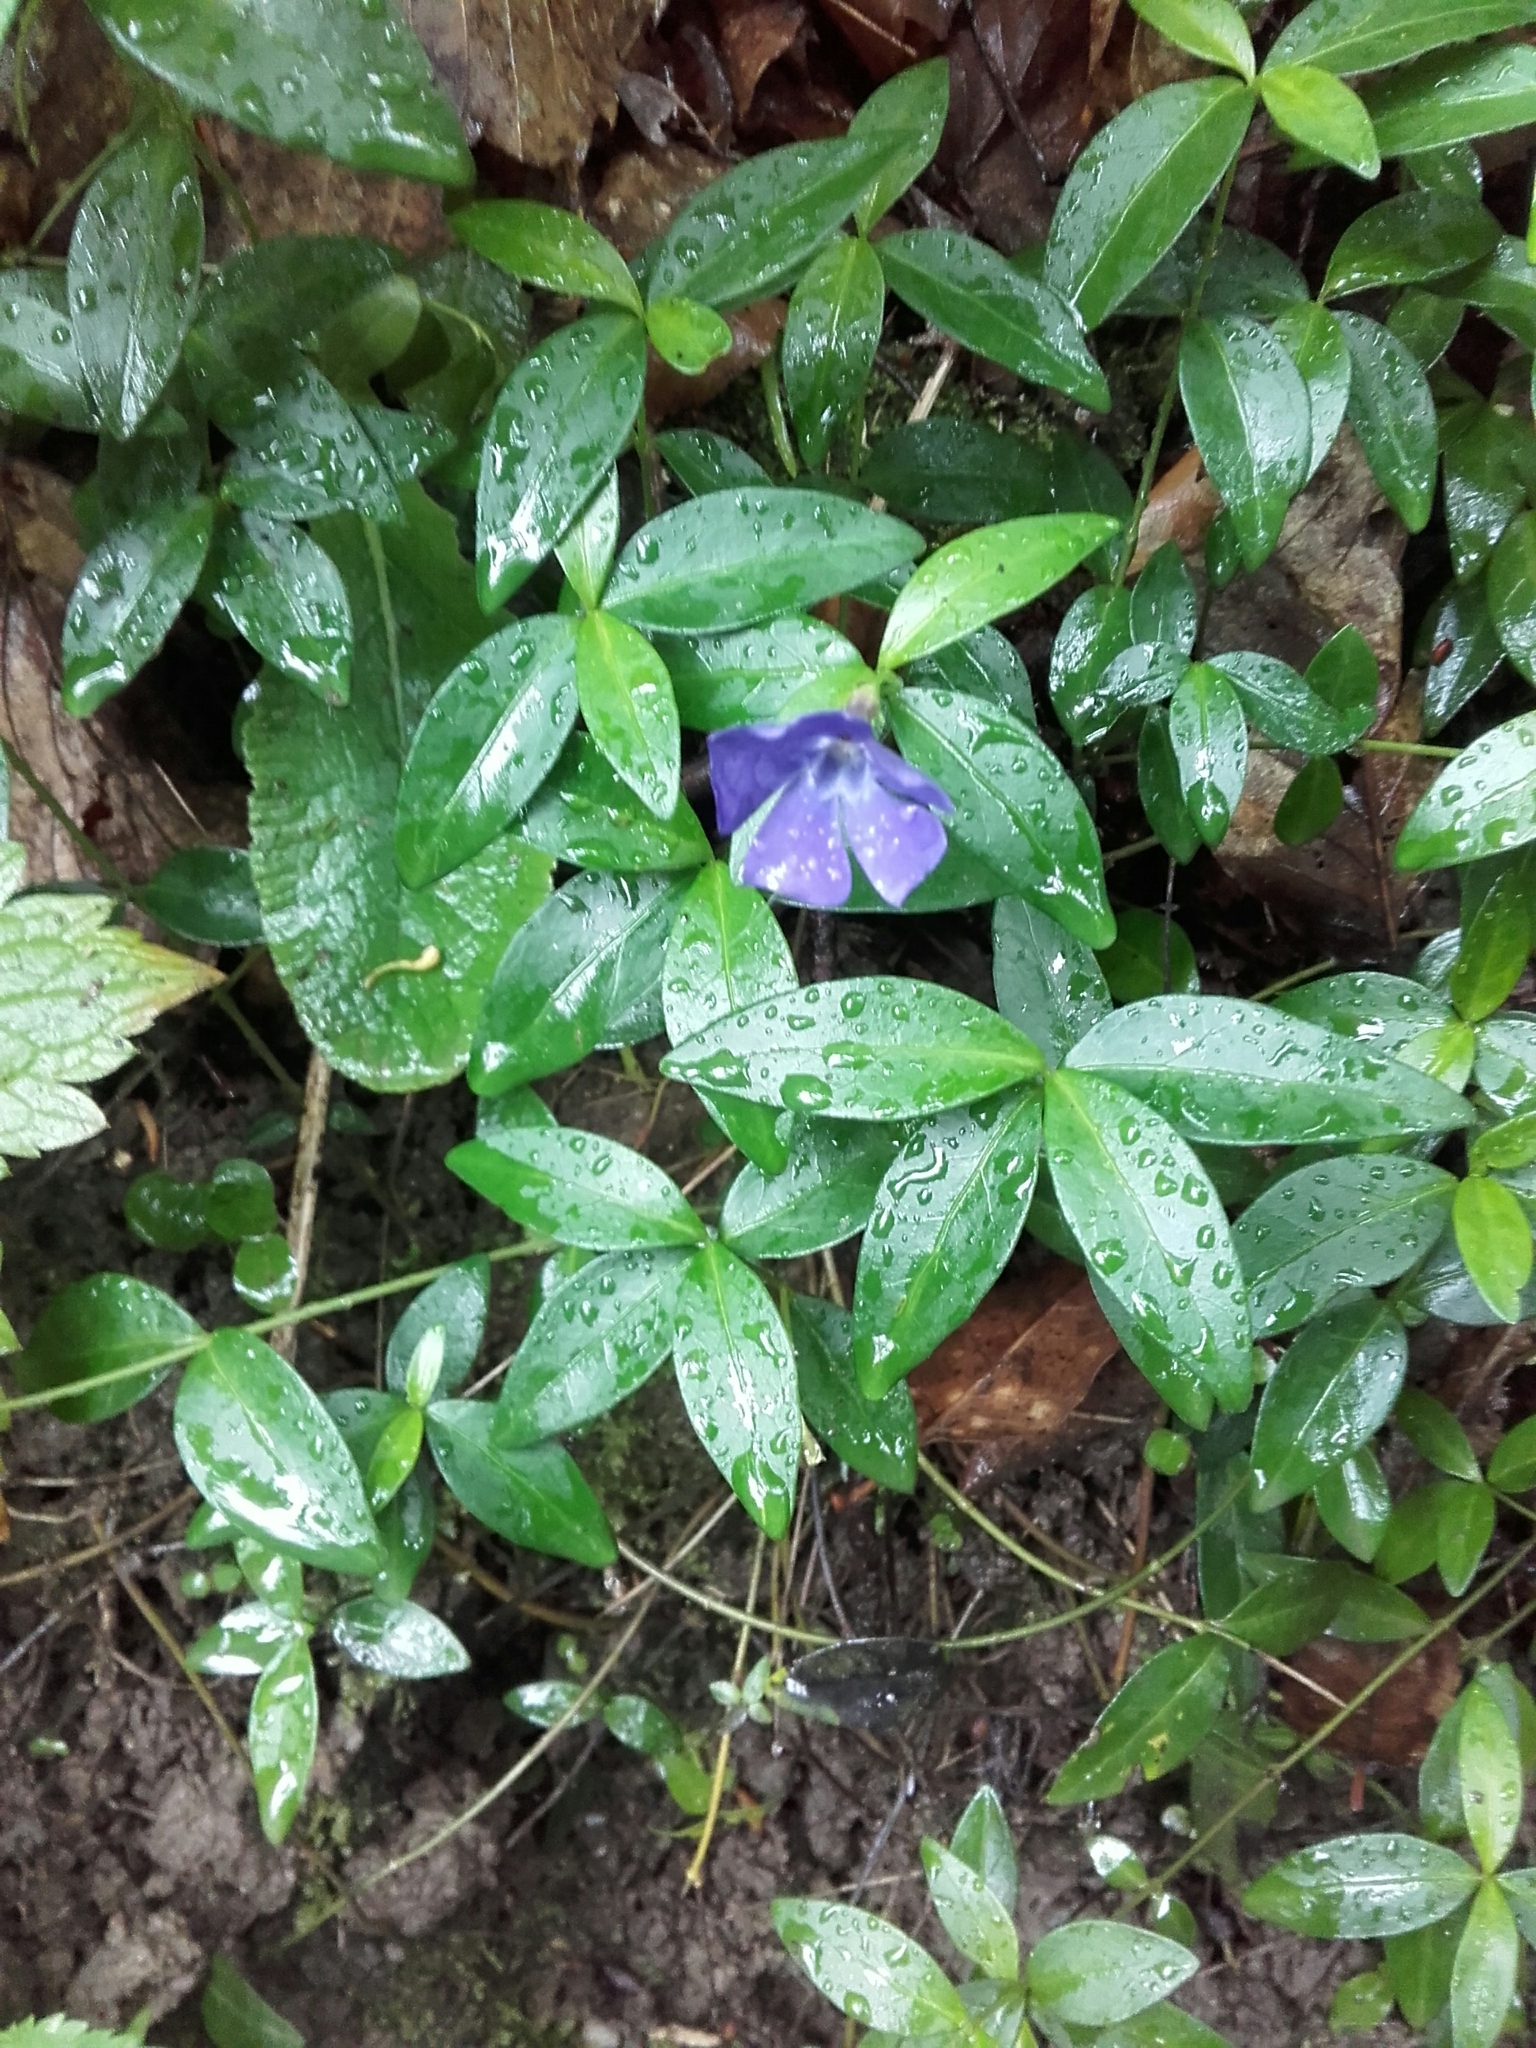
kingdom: Plantae
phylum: Tracheophyta
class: Magnoliopsida
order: Gentianales
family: Apocynaceae
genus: Vinca
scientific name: Vinca minor
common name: Lesser periwinkle
